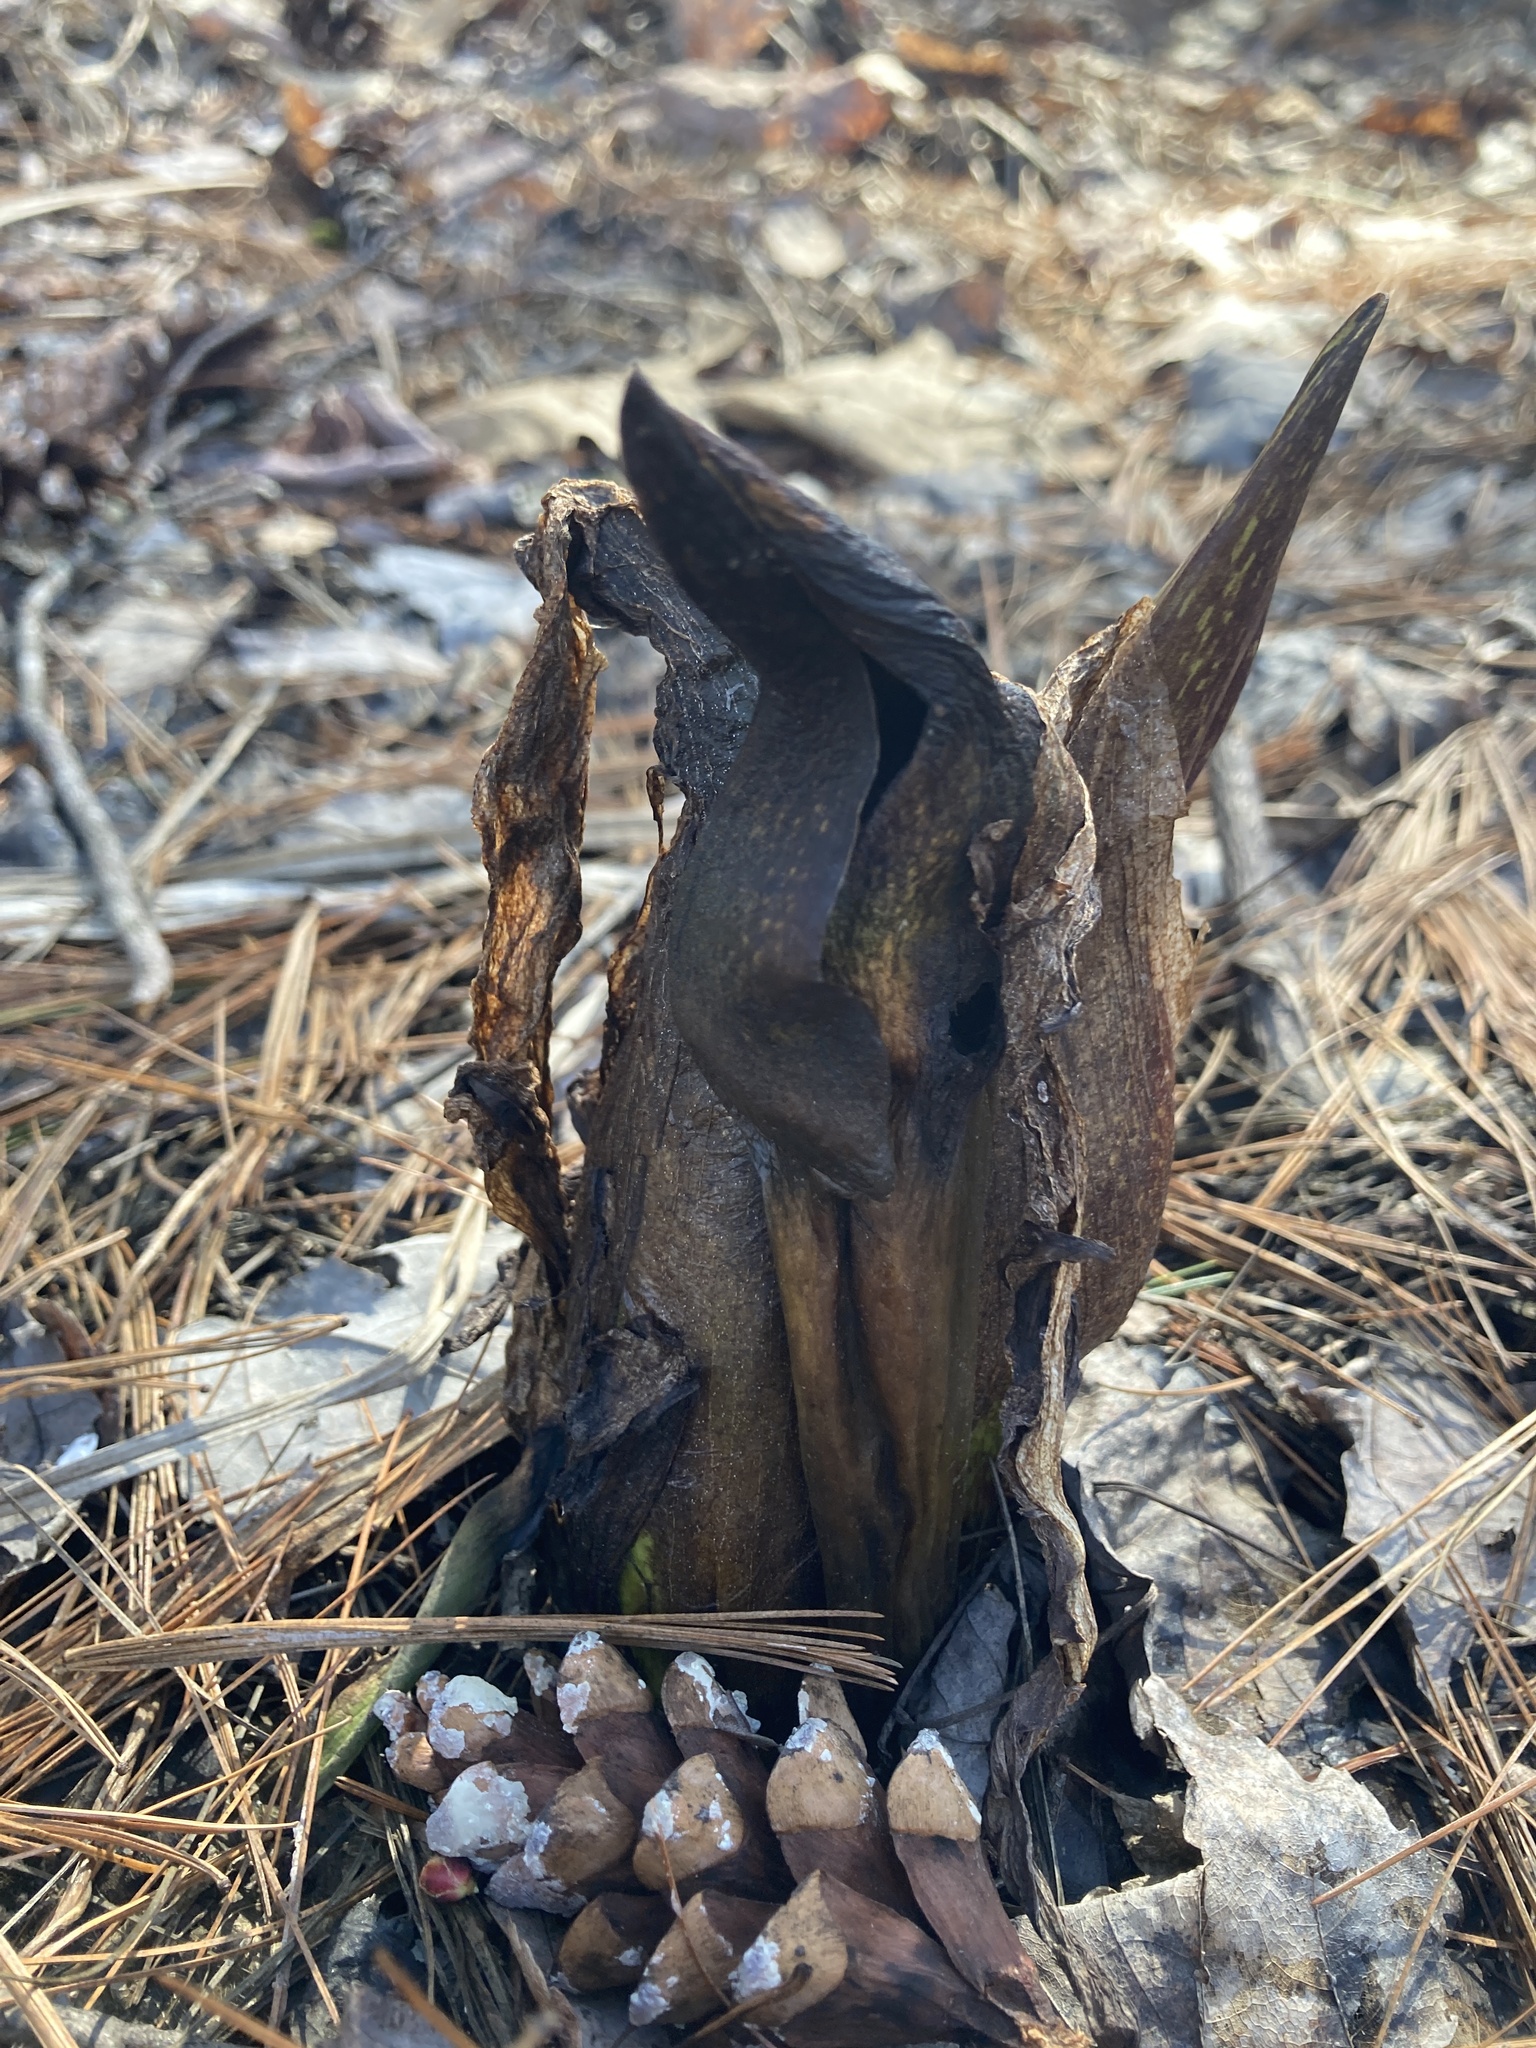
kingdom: Plantae
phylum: Tracheophyta
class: Liliopsida
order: Alismatales
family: Araceae
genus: Symplocarpus
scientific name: Symplocarpus foetidus
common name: Eastern skunk cabbage
